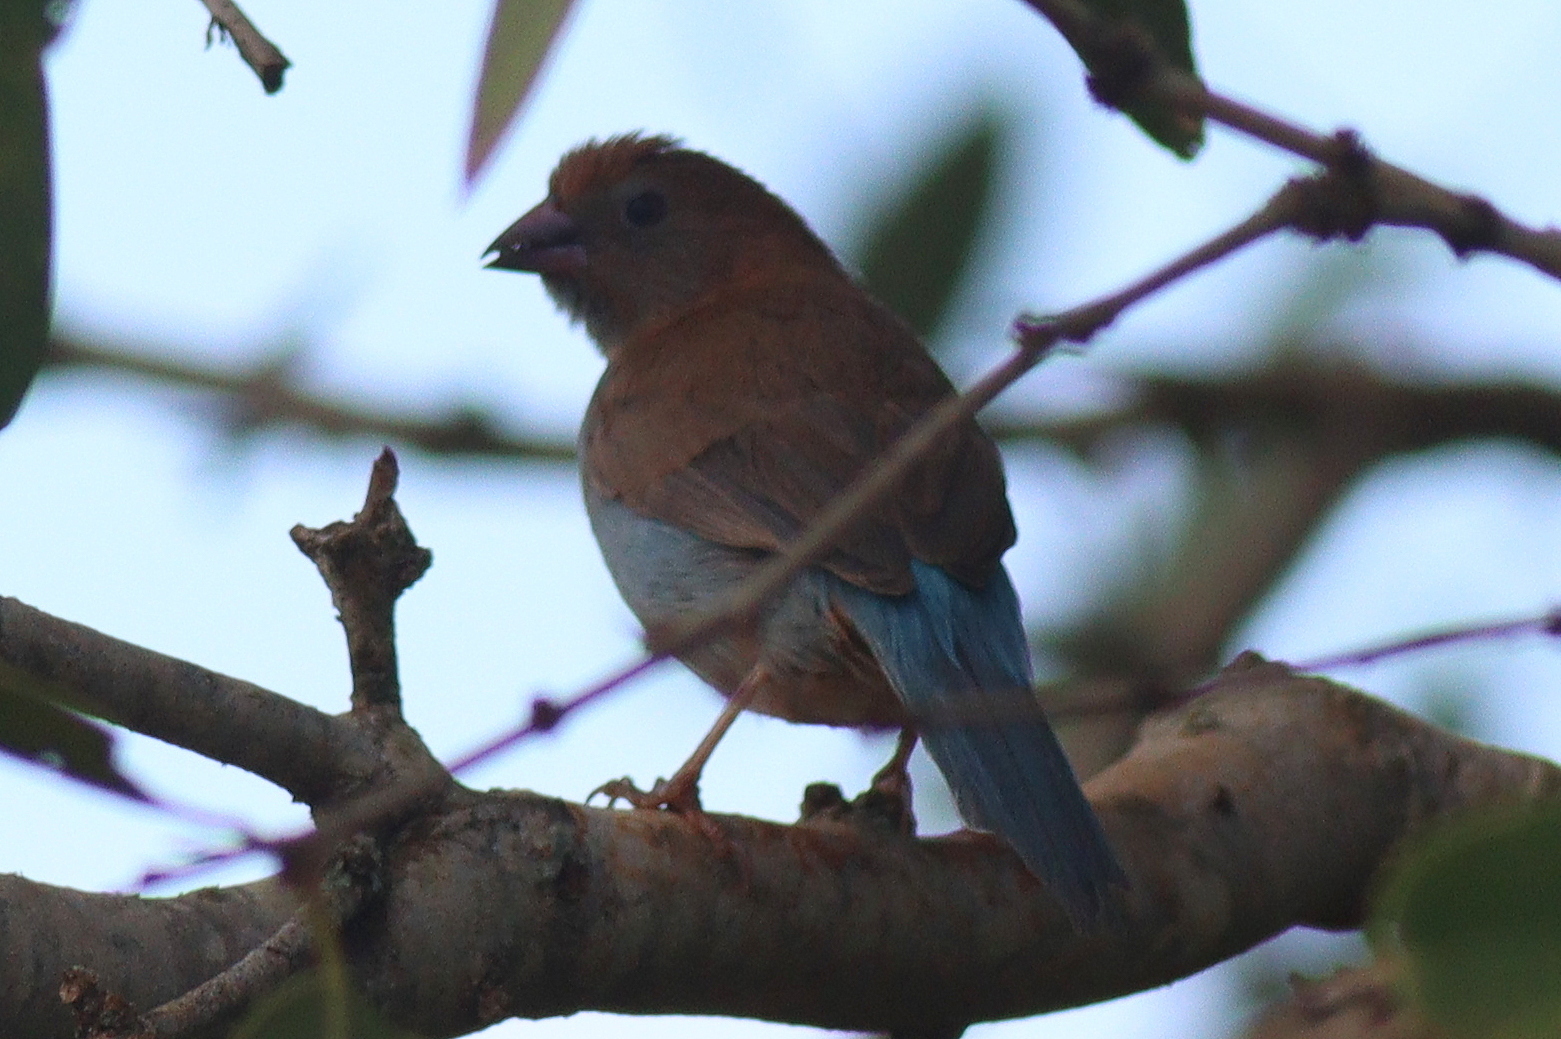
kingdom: Animalia
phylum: Chordata
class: Aves
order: Passeriformes
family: Estrildidae
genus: Uraeginthus
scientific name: Uraeginthus bengalus
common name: Red-cheeked cordon-bleu
